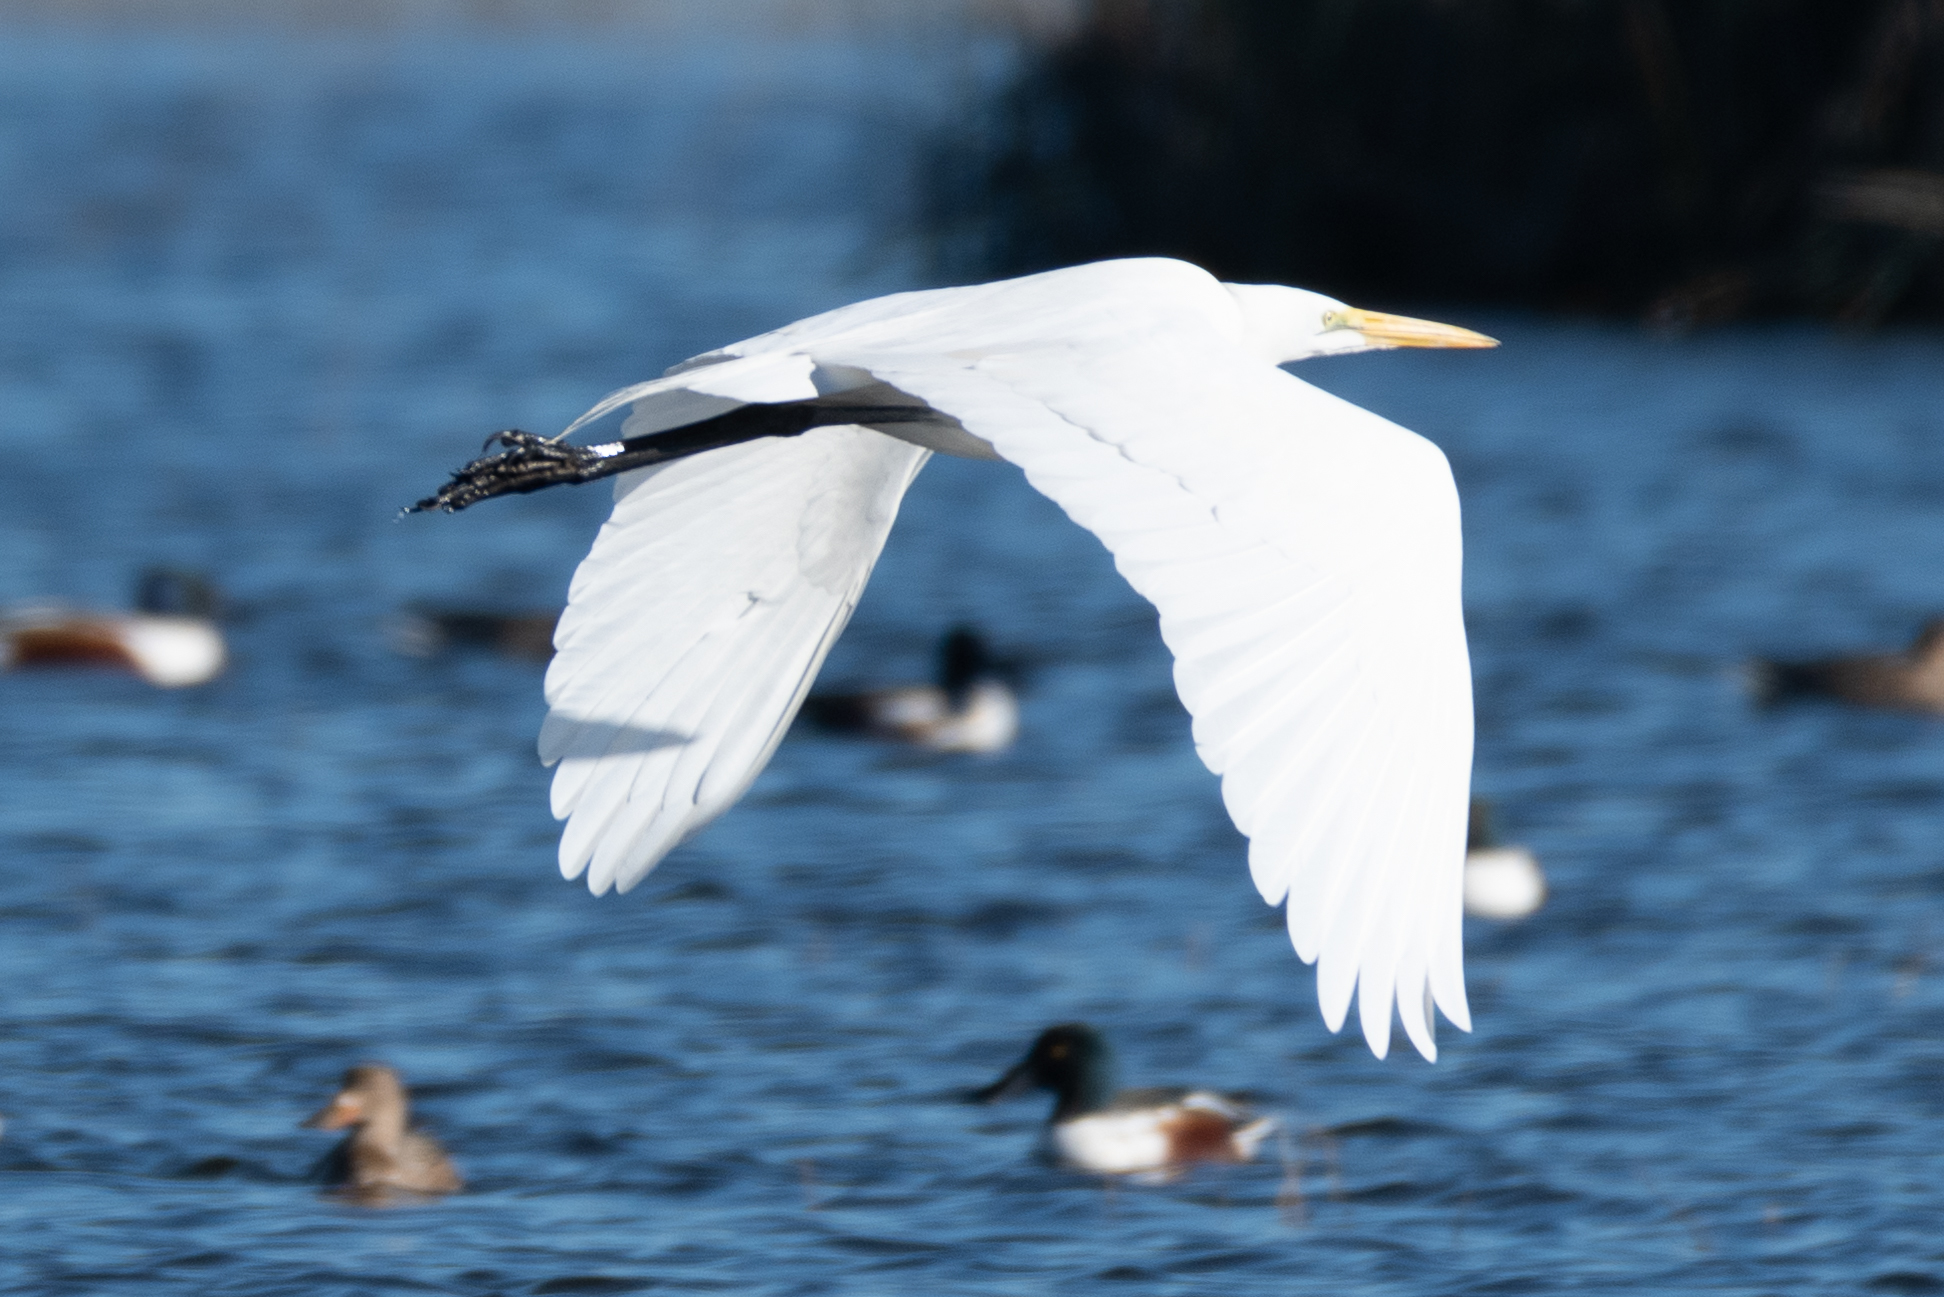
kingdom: Animalia
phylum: Chordata
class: Aves
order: Pelecaniformes
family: Ardeidae
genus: Ardea
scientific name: Ardea alba
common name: Great egret
